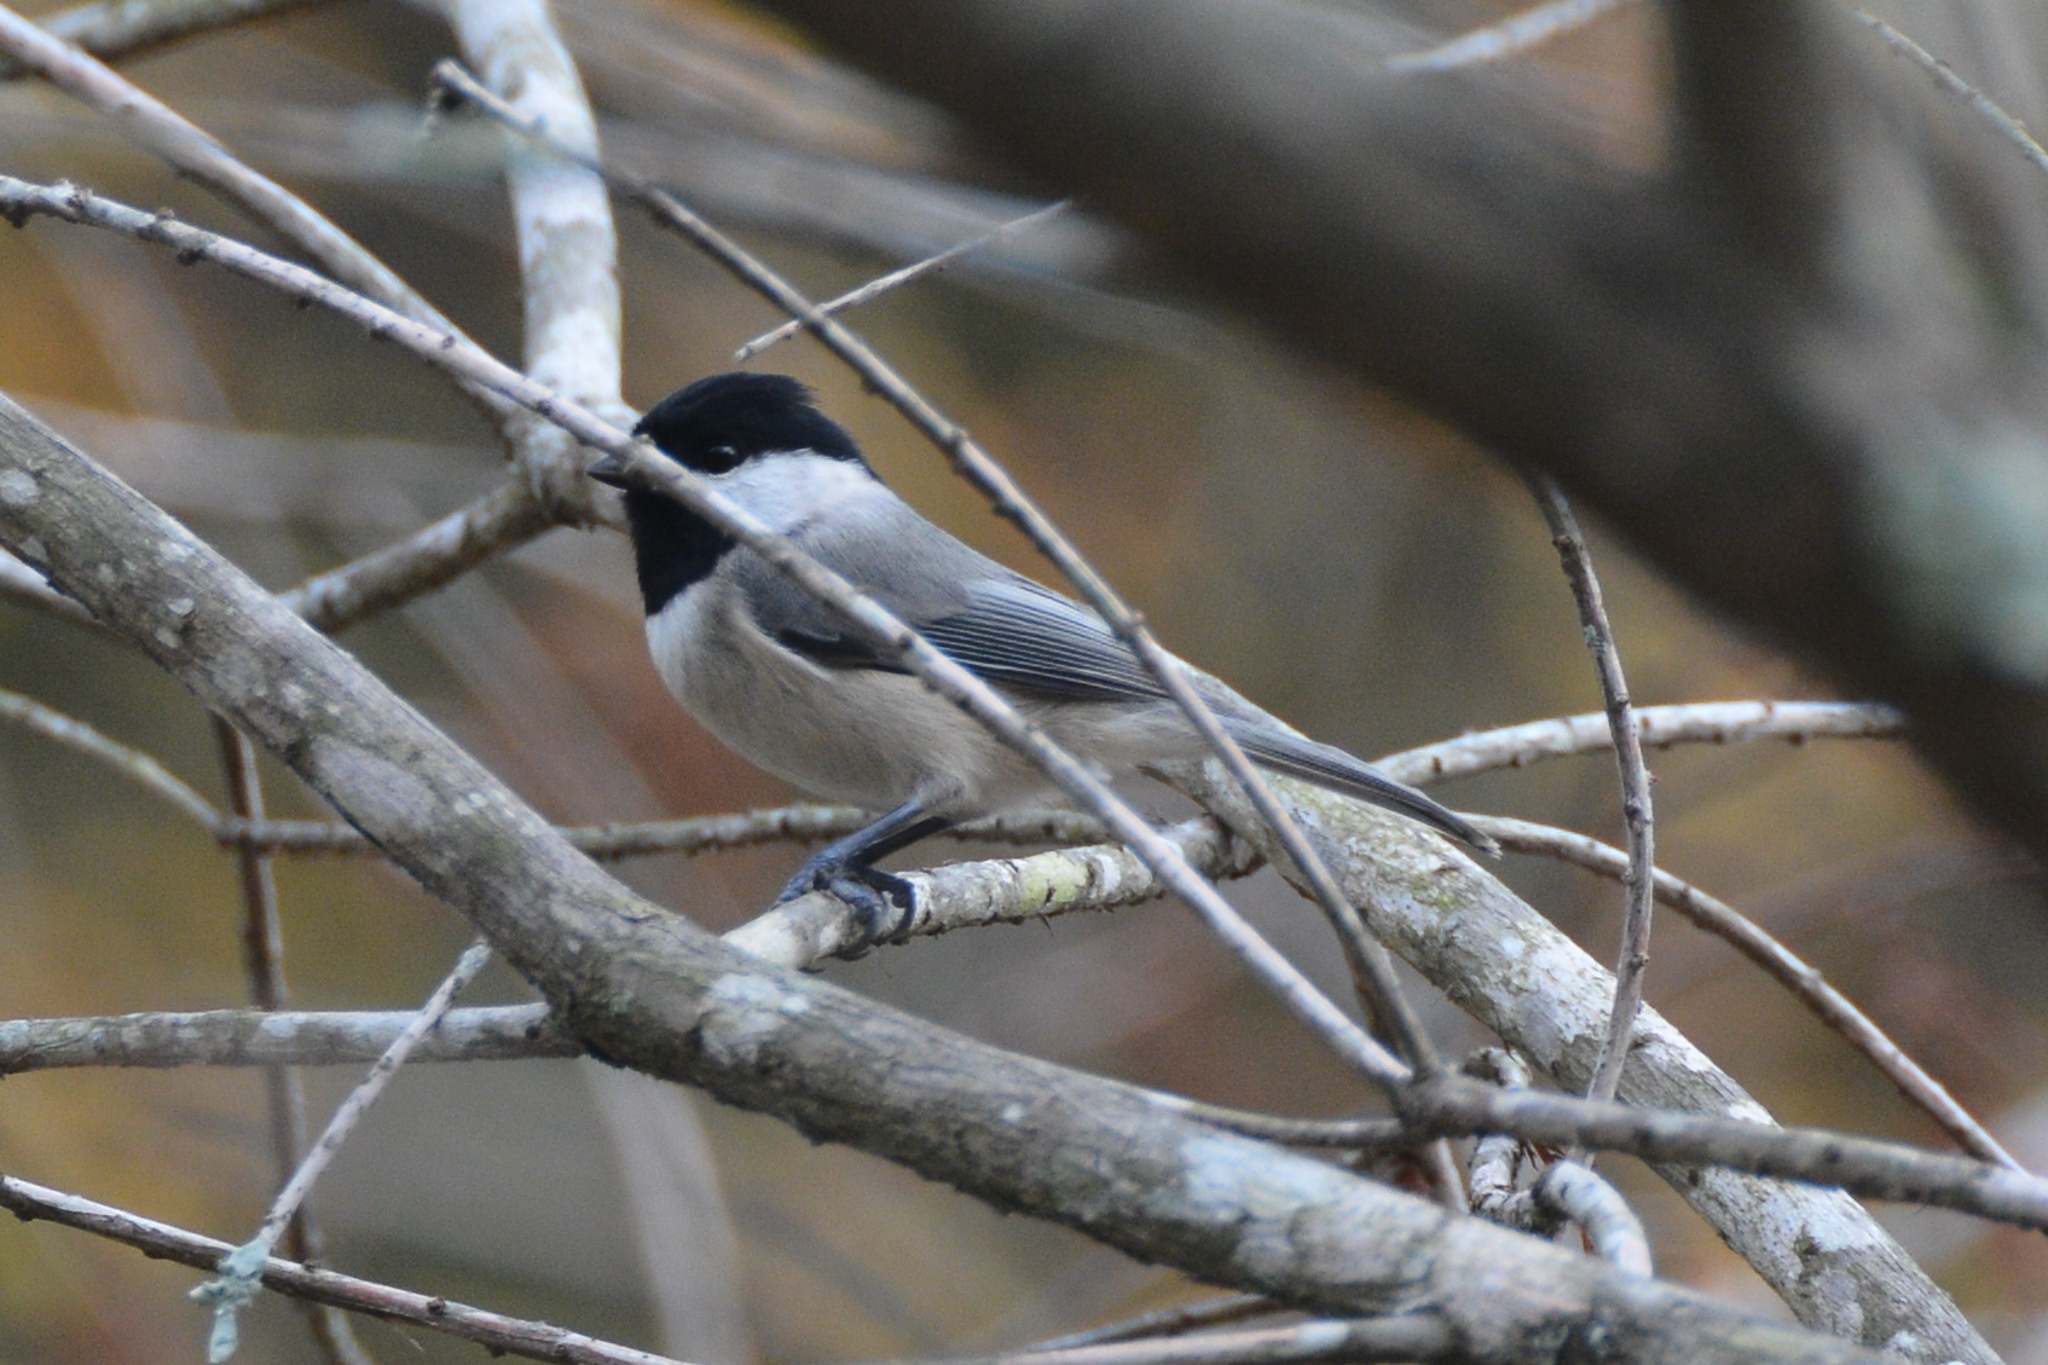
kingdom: Animalia
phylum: Chordata
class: Aves
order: Passeriformes
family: Paridae
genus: Poecile
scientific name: Poecile carolinensis
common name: Carolina chickadee
